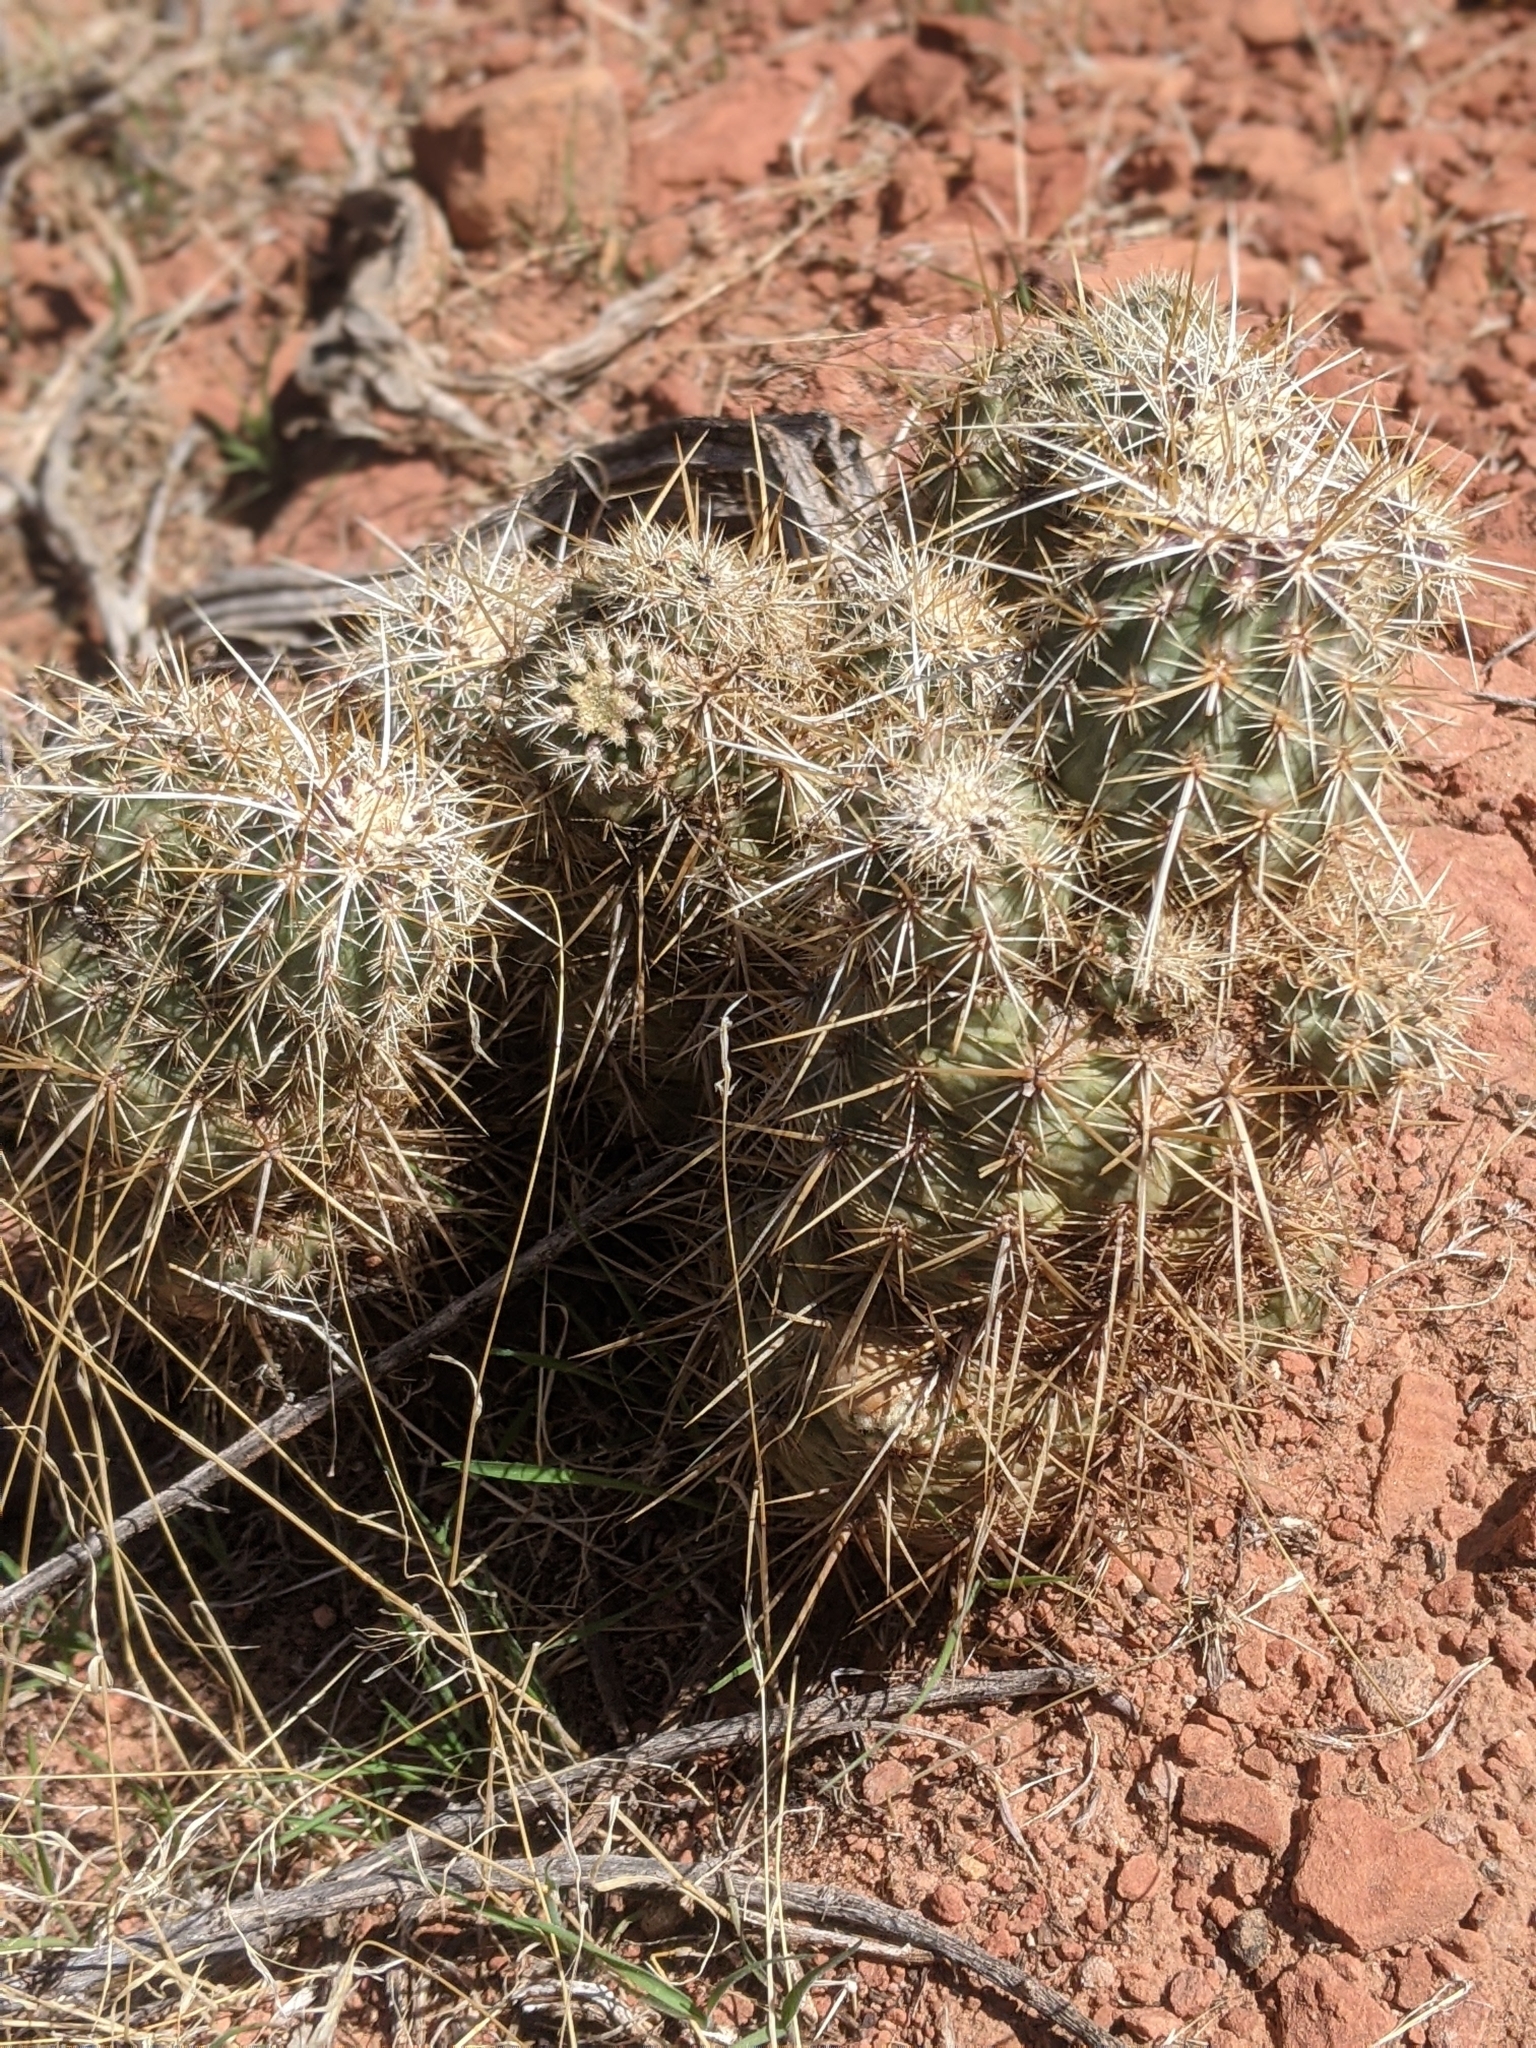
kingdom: Plantae
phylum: Tracheophyta
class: Magnoliopsida
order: Caryophyllales
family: Cactaceae
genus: Echinocereus
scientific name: Echinocereus engelmannii
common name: Engelmann's hedgehog cactus
